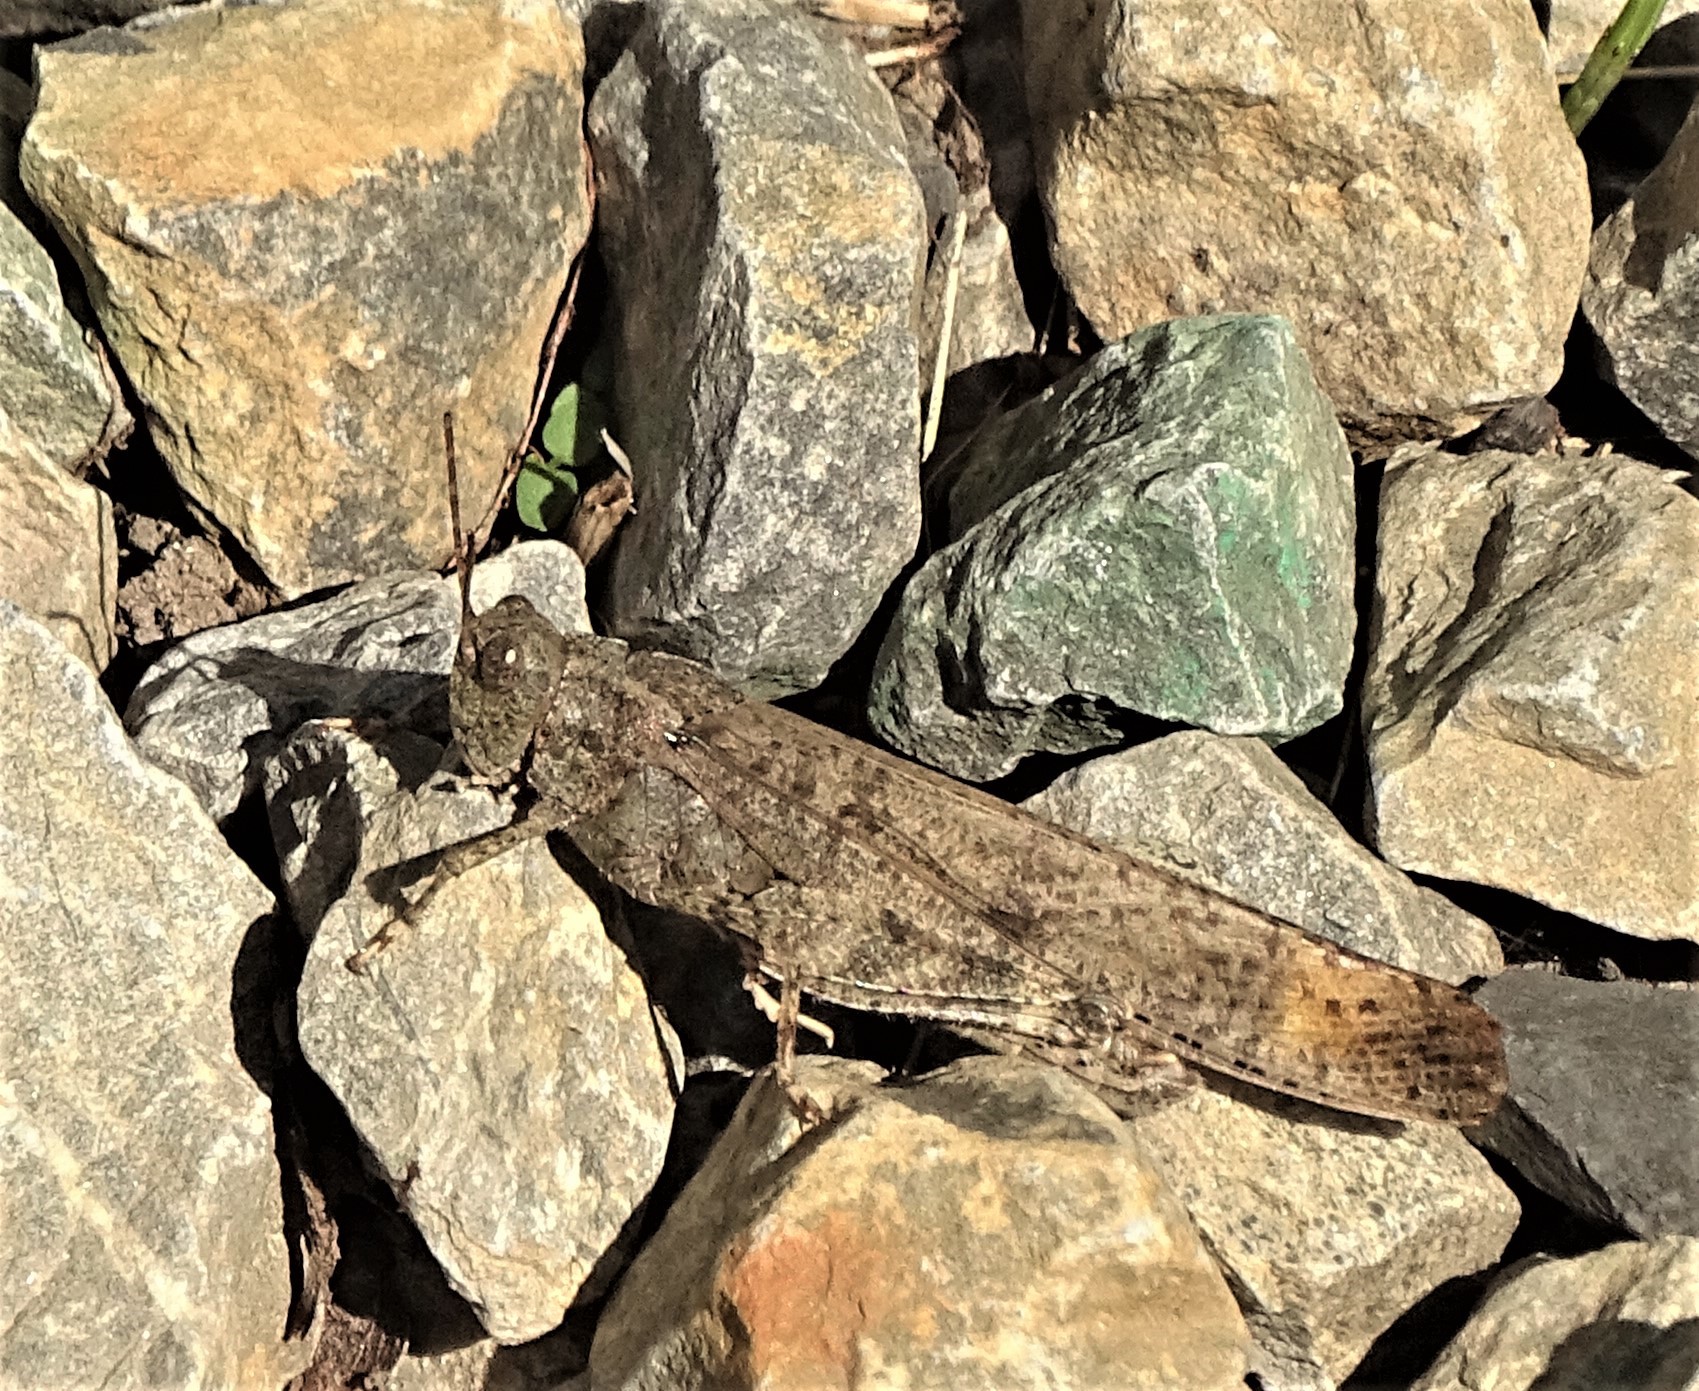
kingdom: Animalia
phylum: Arthropoda
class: Insecta
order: Orthoptera
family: Acrididae
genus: Dissosteira
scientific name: Dissosteira carolina
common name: Carolina grasshopper
